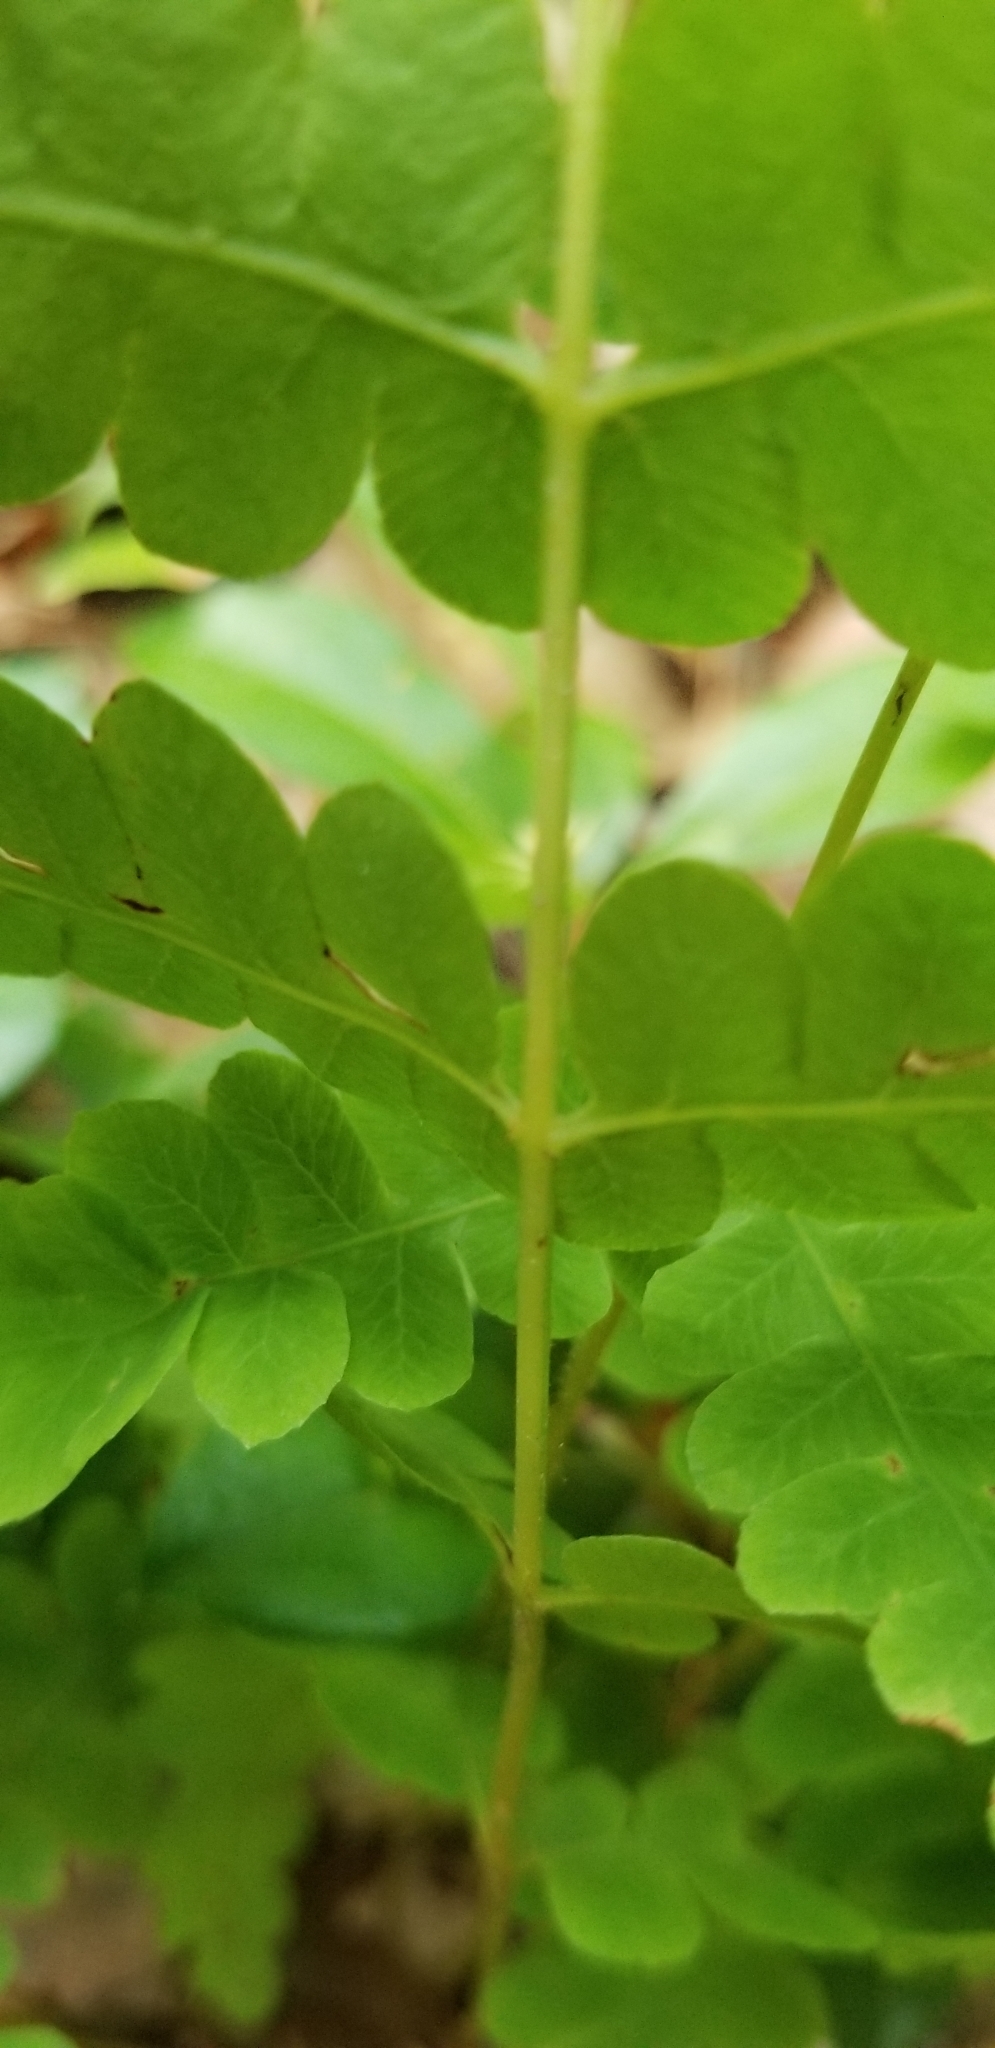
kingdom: Plantae
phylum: Tracheophyta
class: Polypodiopsida
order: Osmundales
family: Osmundaceae
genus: Claytosmunda
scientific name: Claytosmunda claytoniana
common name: Clayton's fern
